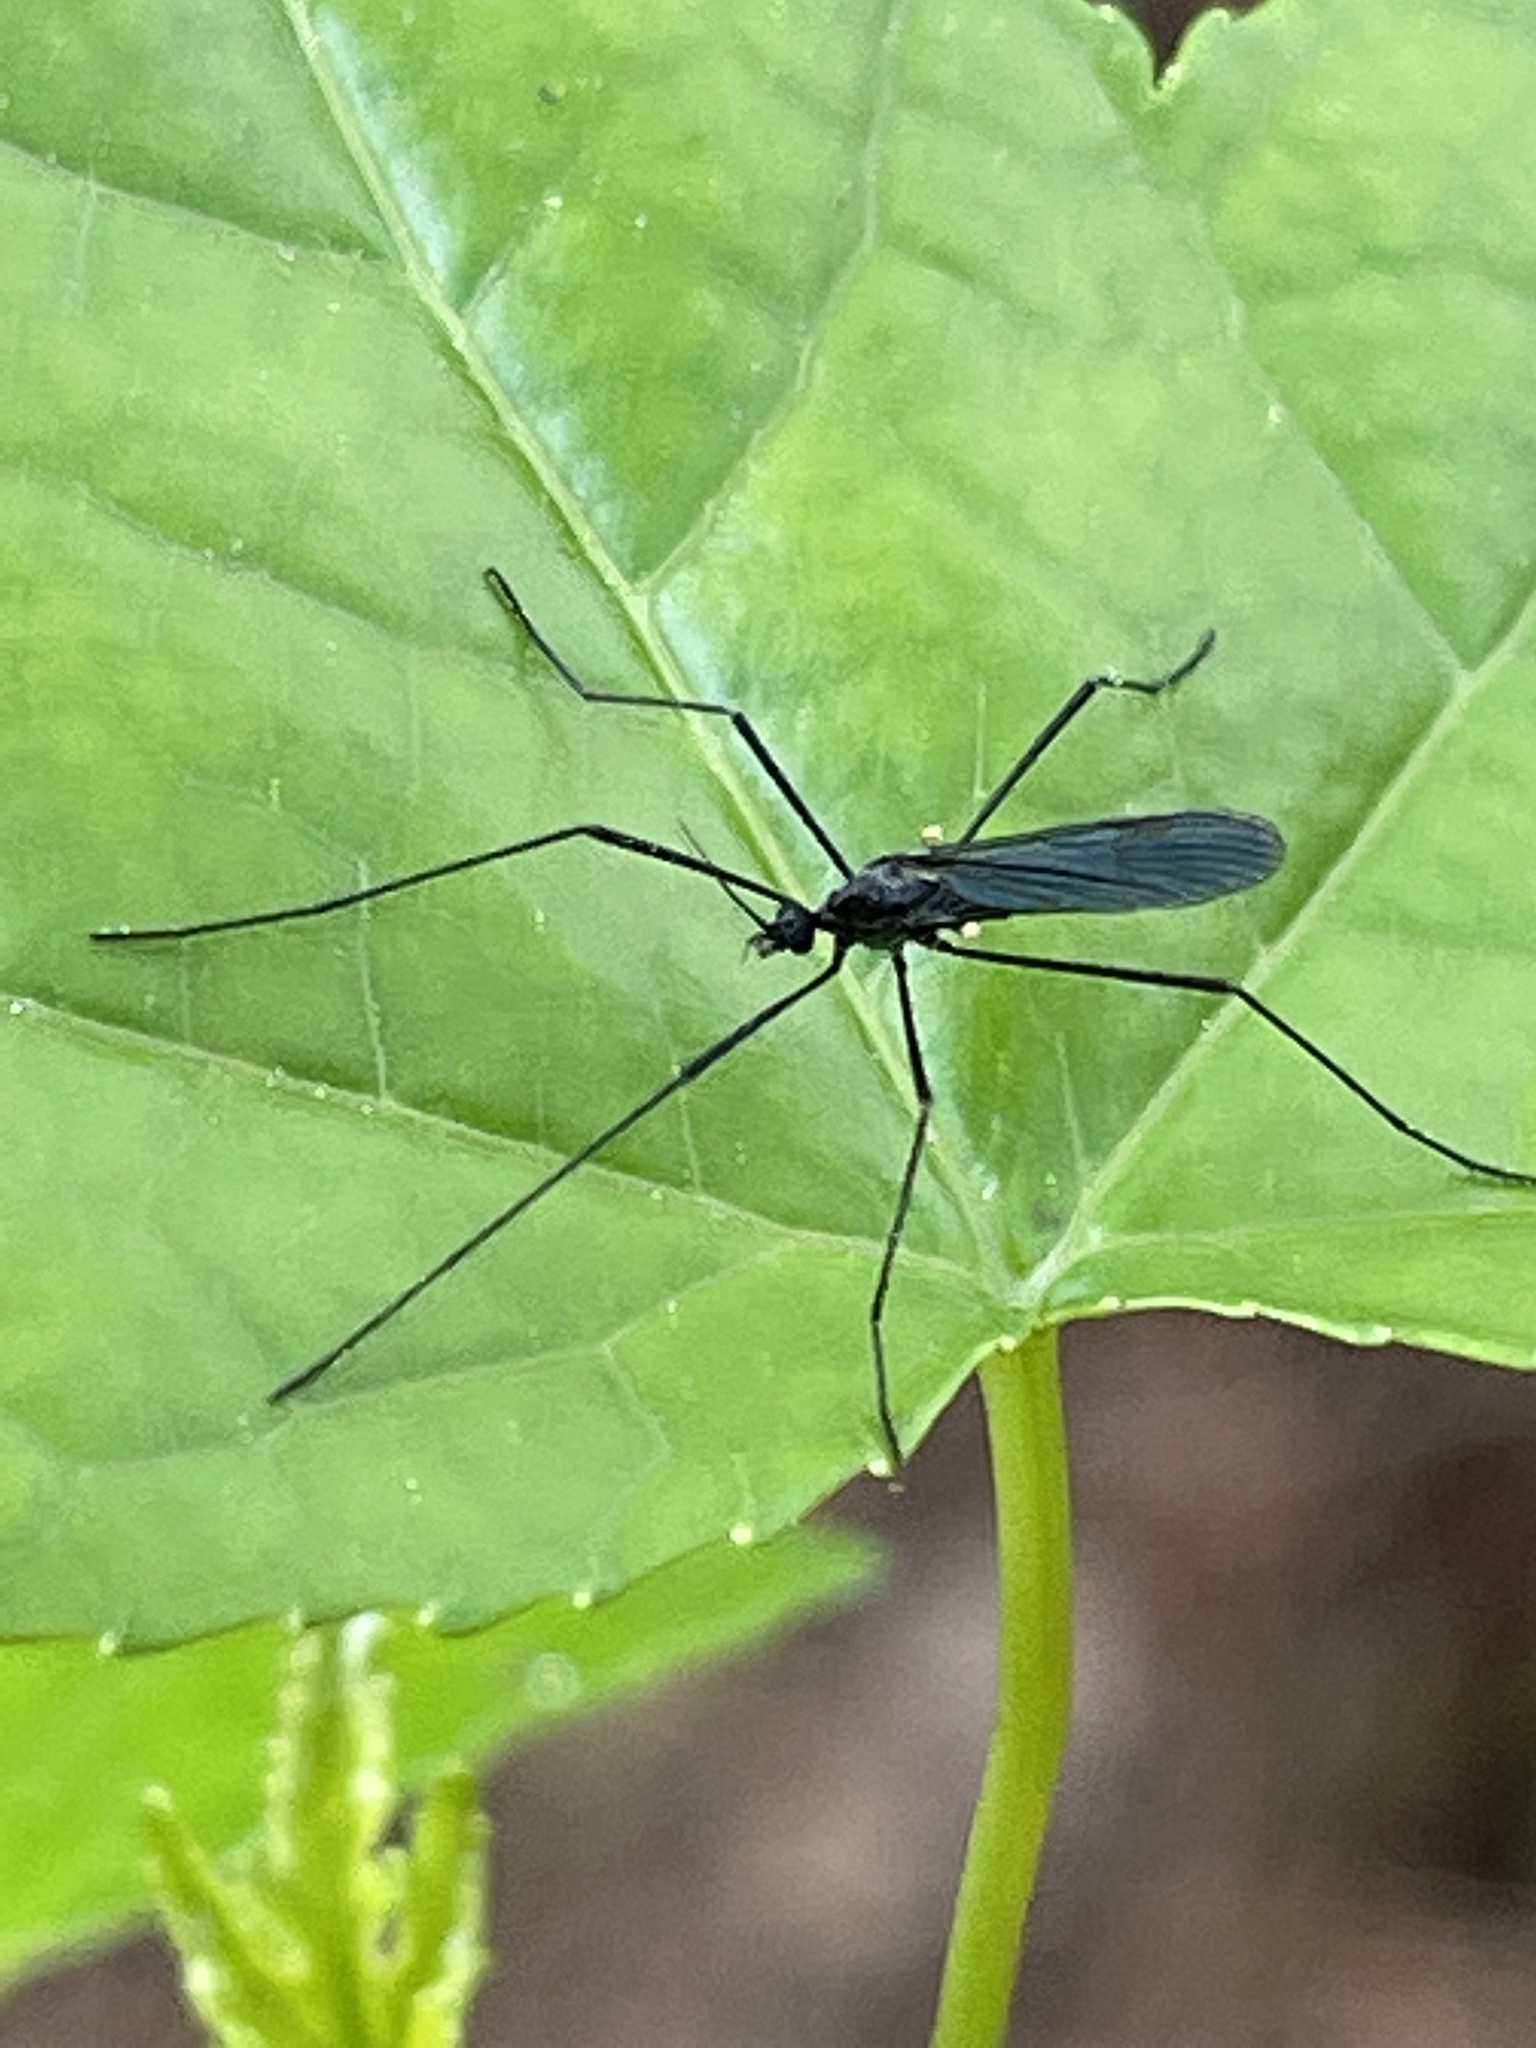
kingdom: Animalia
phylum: Arthropoda
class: Insecta
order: Diptera
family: Limoniidae
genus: Gnophomyia
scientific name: Gnophomyia tristissima
